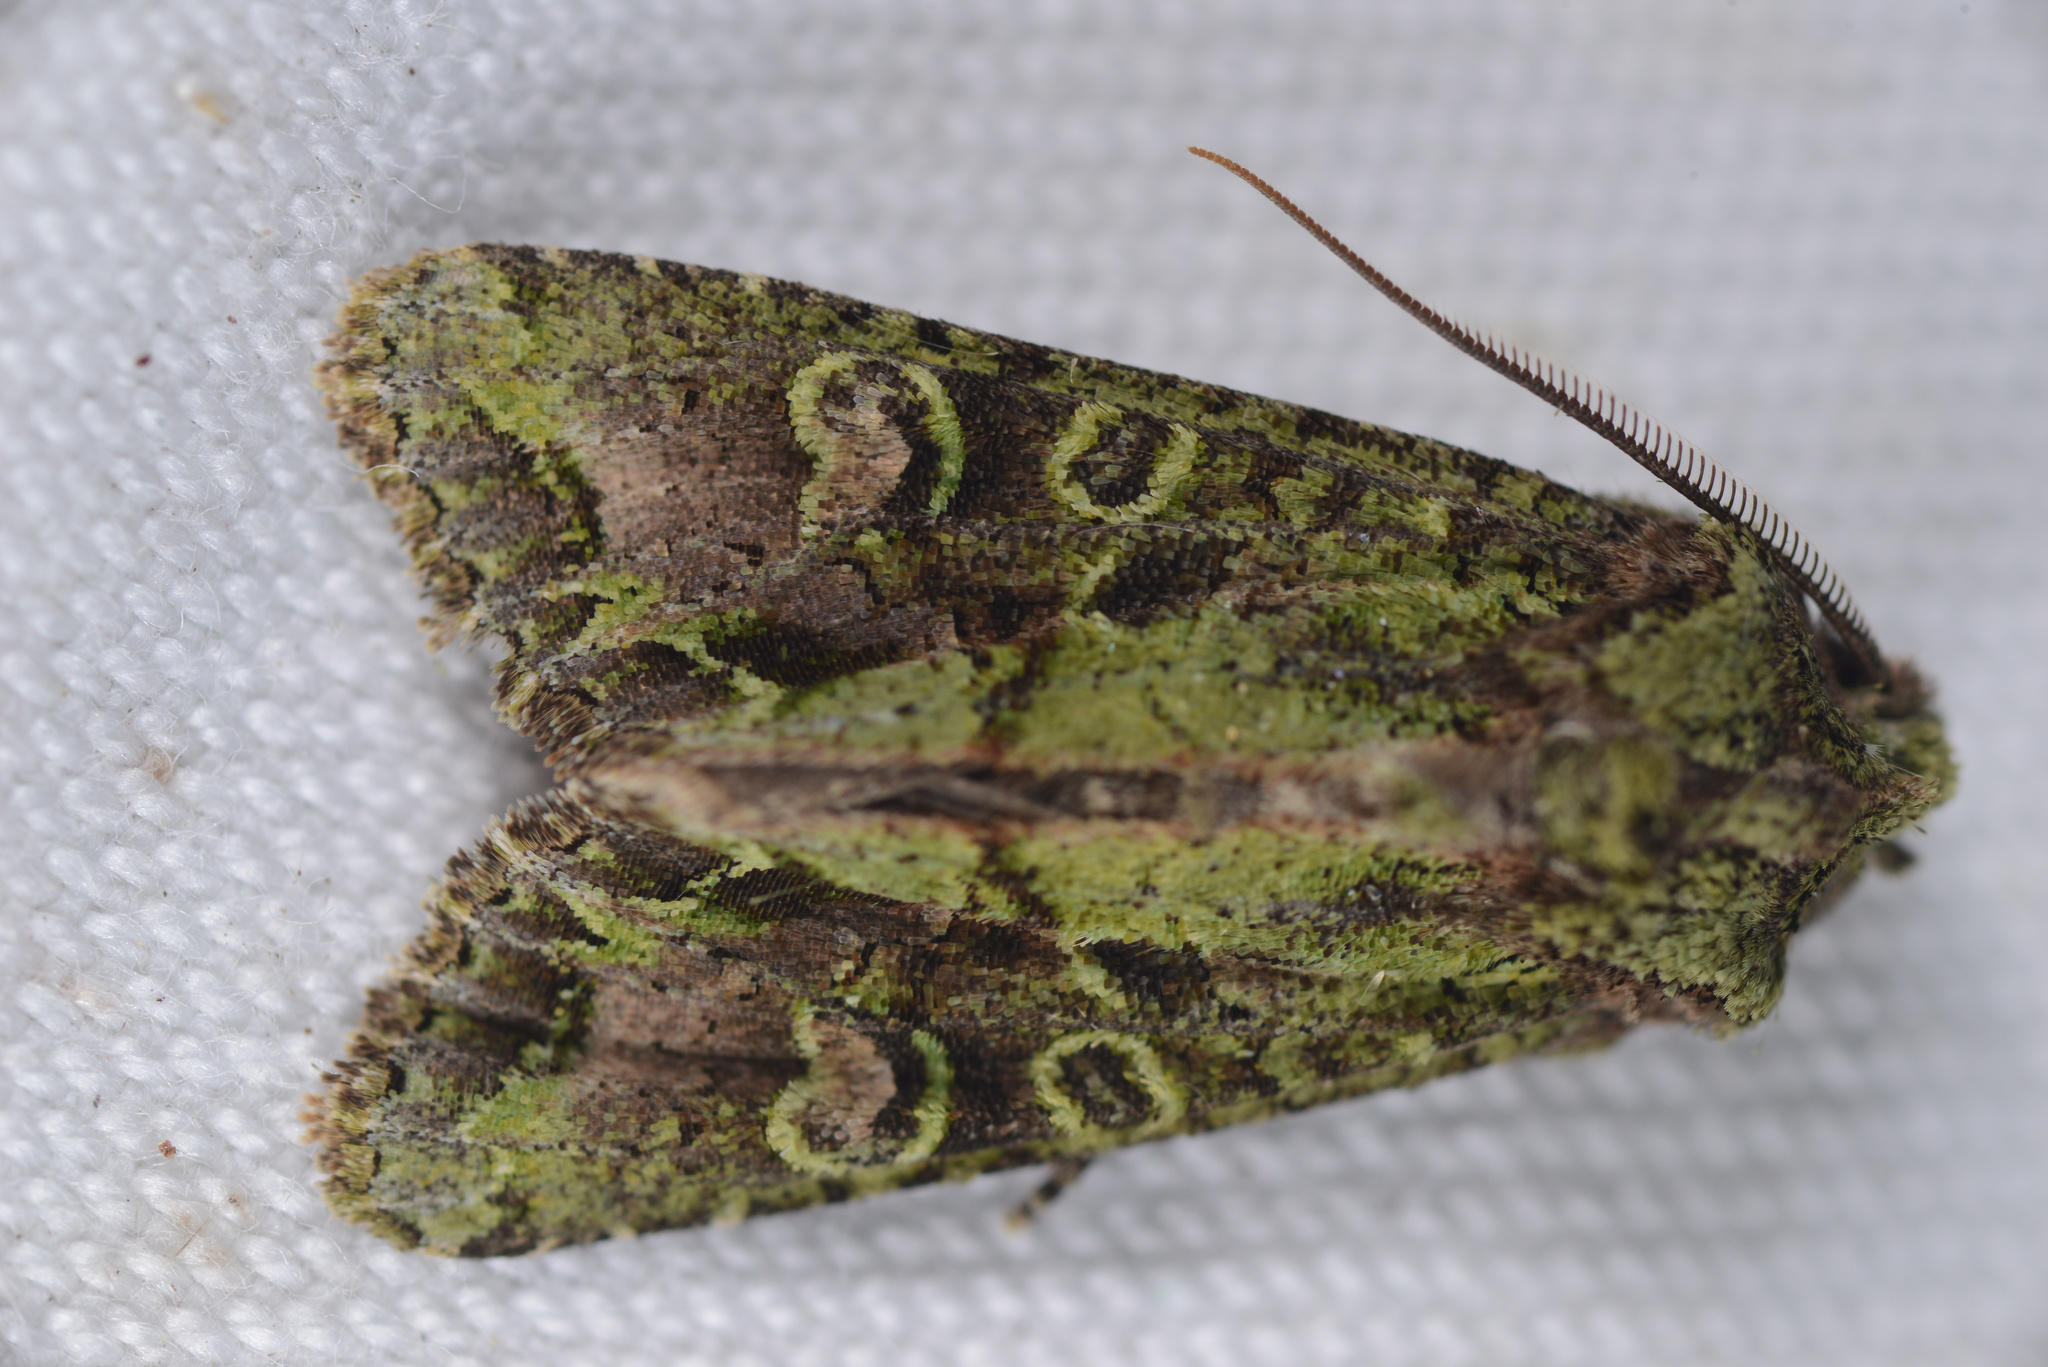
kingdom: Animalia
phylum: Arthropoda
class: Insecta
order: Lepidoptera
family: Noctuidae
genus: Ichneutica
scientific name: Ichneutica
